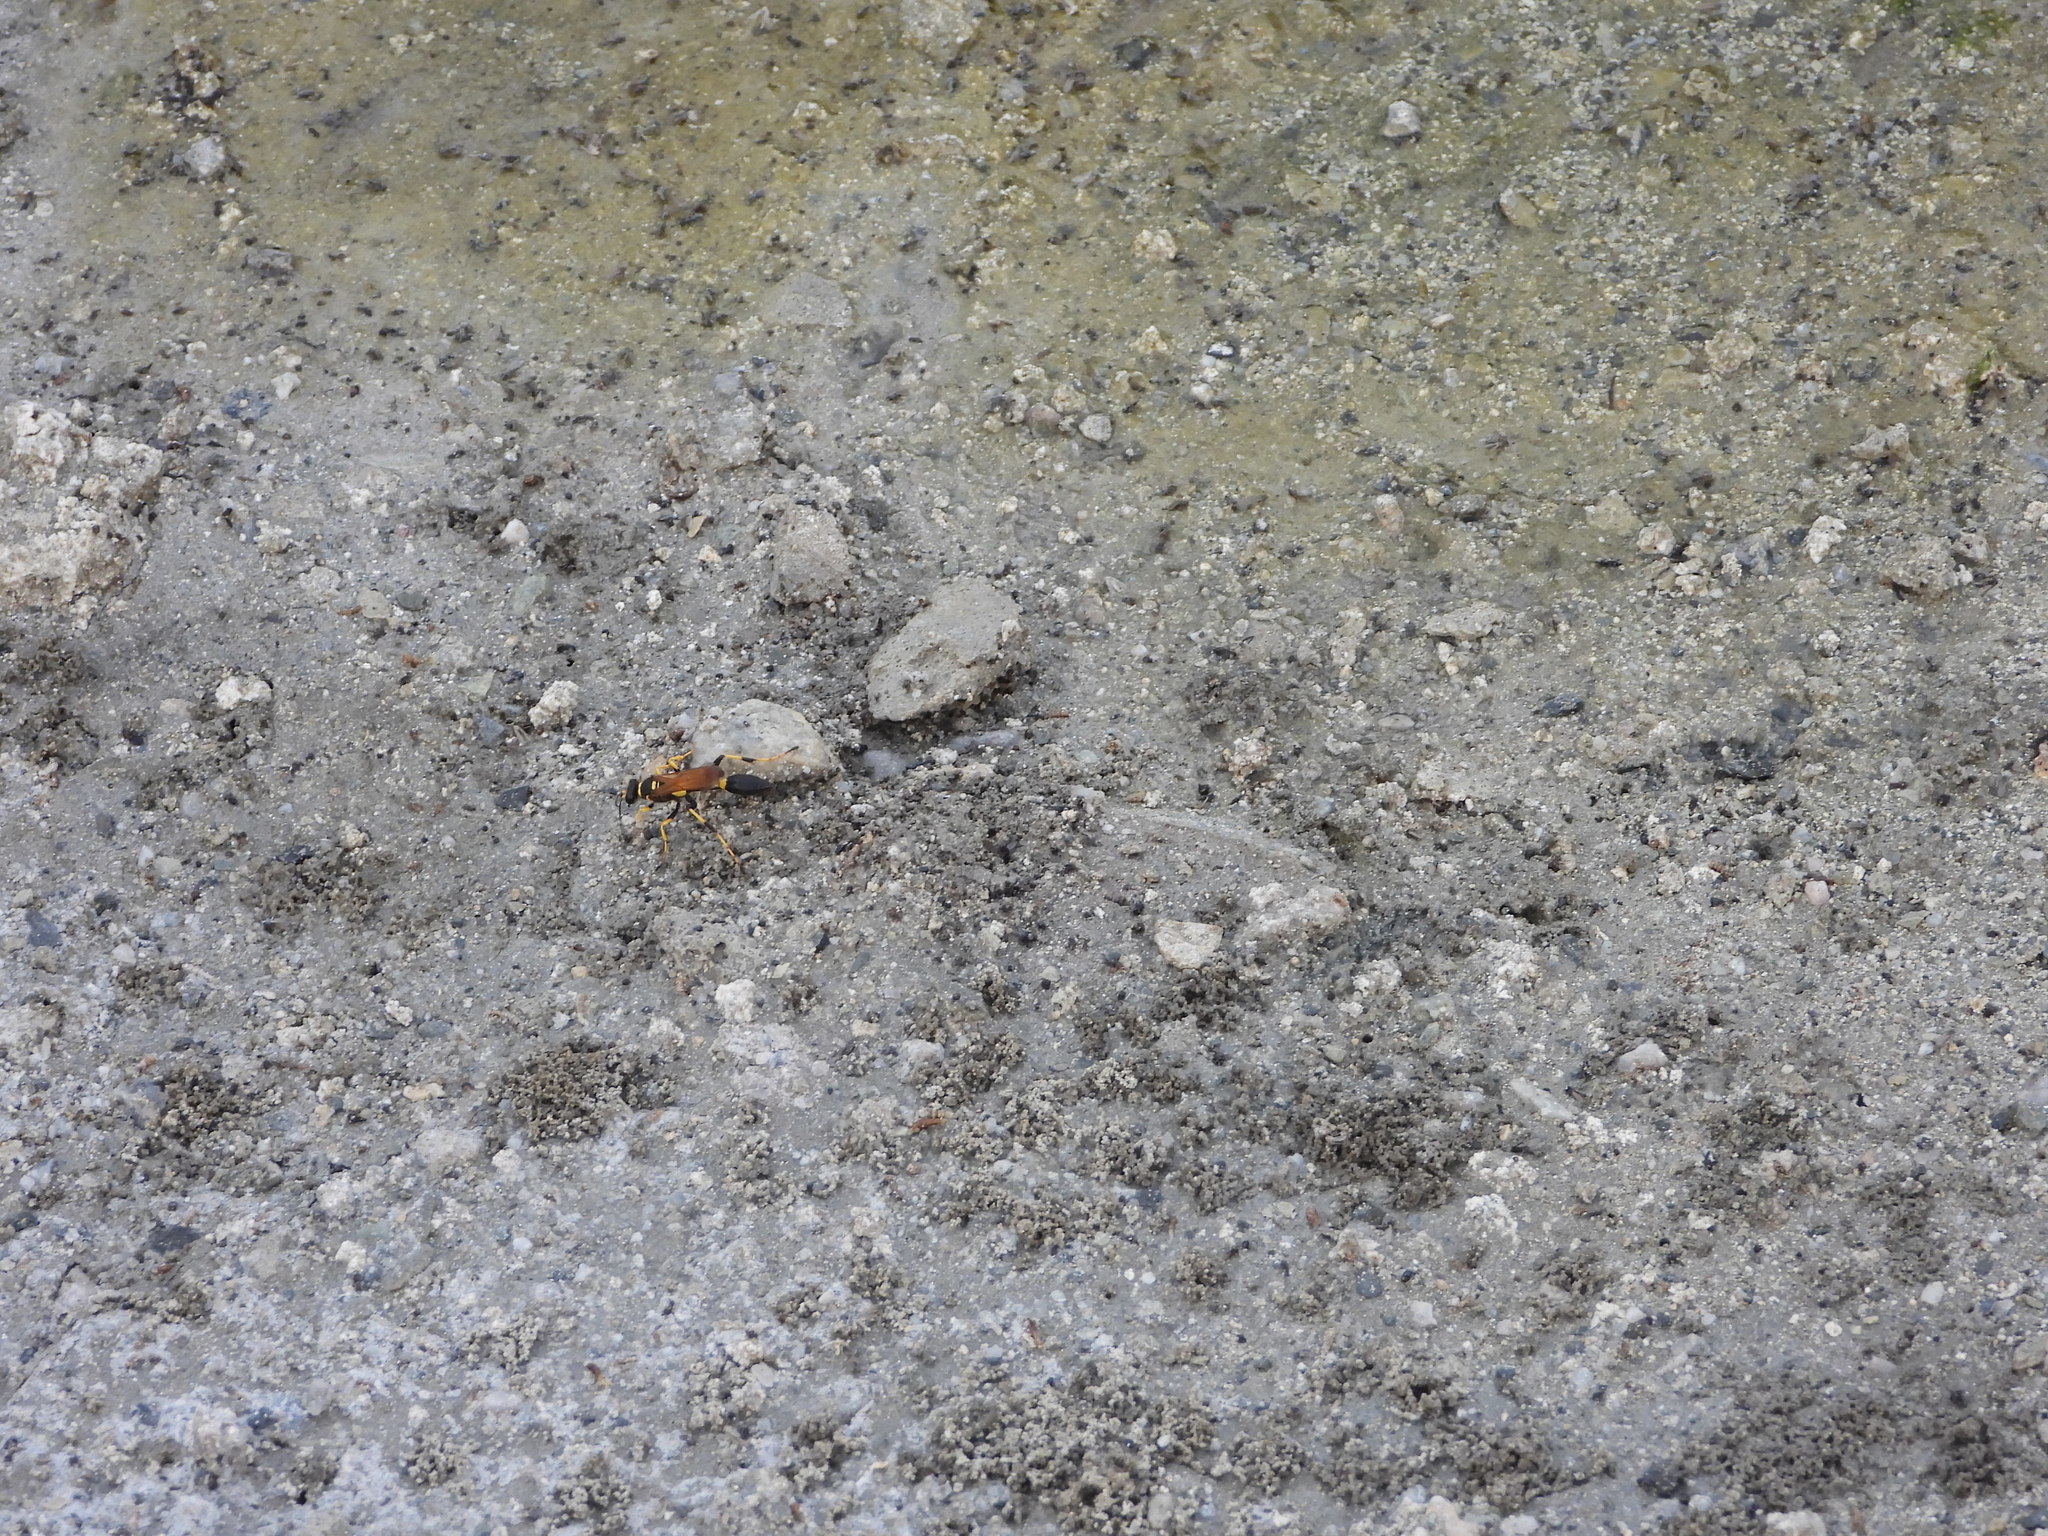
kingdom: Animalia
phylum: Arthropoda
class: Insecta
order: Hymenoptera
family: Sphecidae
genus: Sceliphron
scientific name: Sceliphron caementarium
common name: Mud dauber
